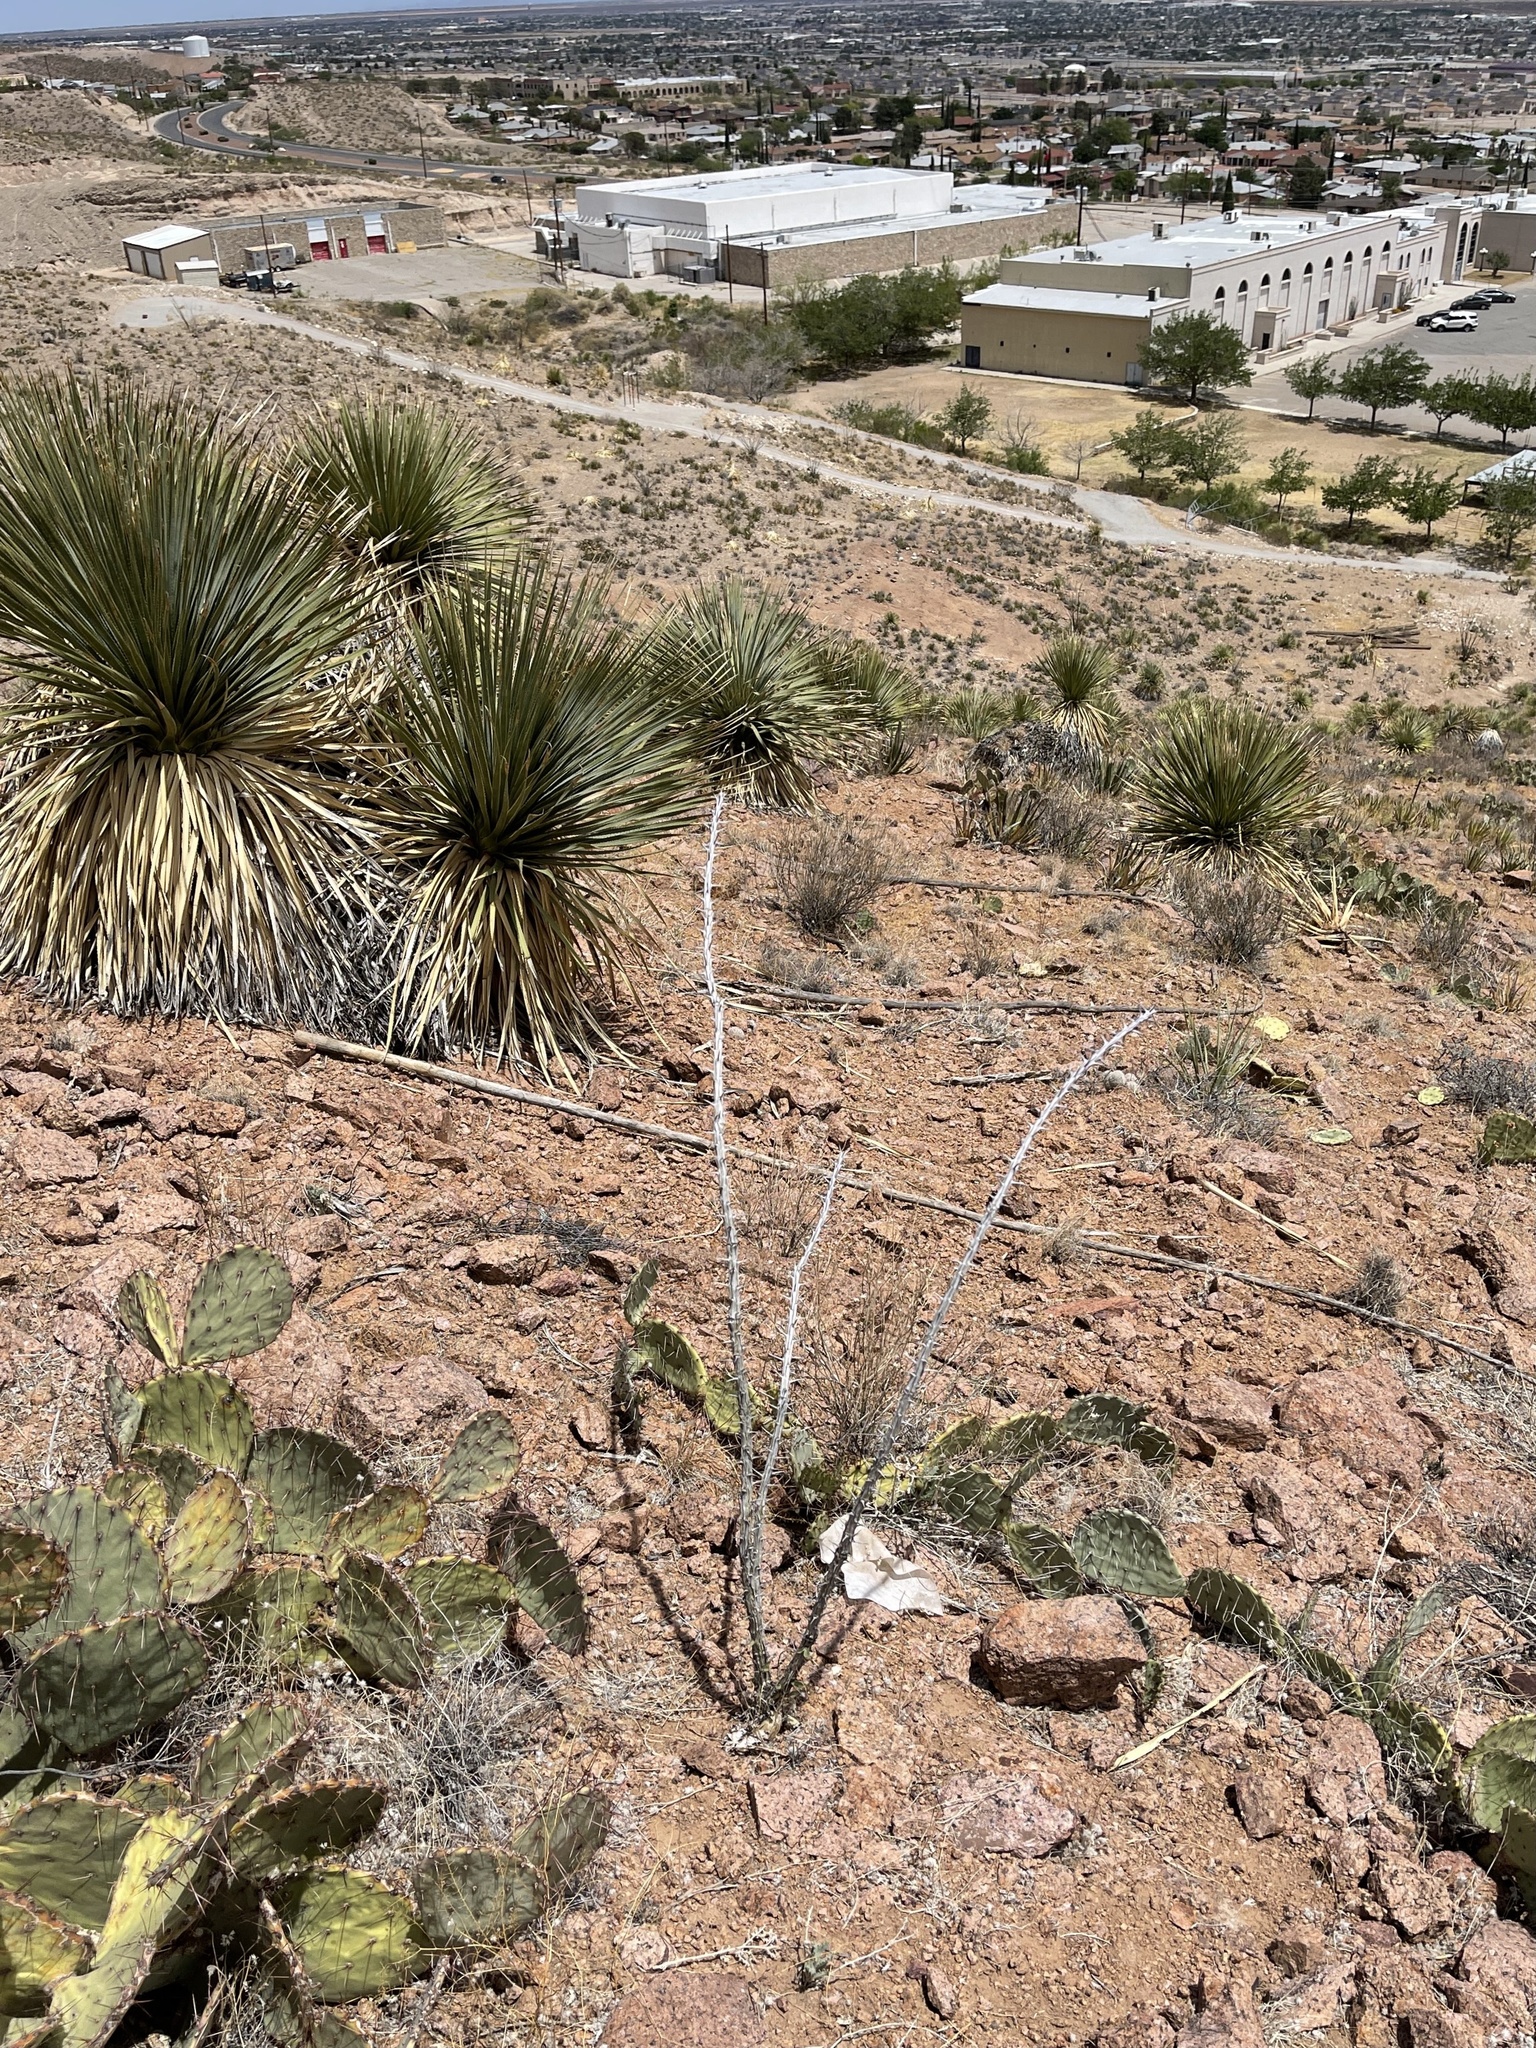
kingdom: Plantae
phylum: Tracheophyta
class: Magnoliopsida
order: Ericales
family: Fouquieriaceae
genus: Fouquieria
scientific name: Fouquieria splendens
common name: Vine-cactus
